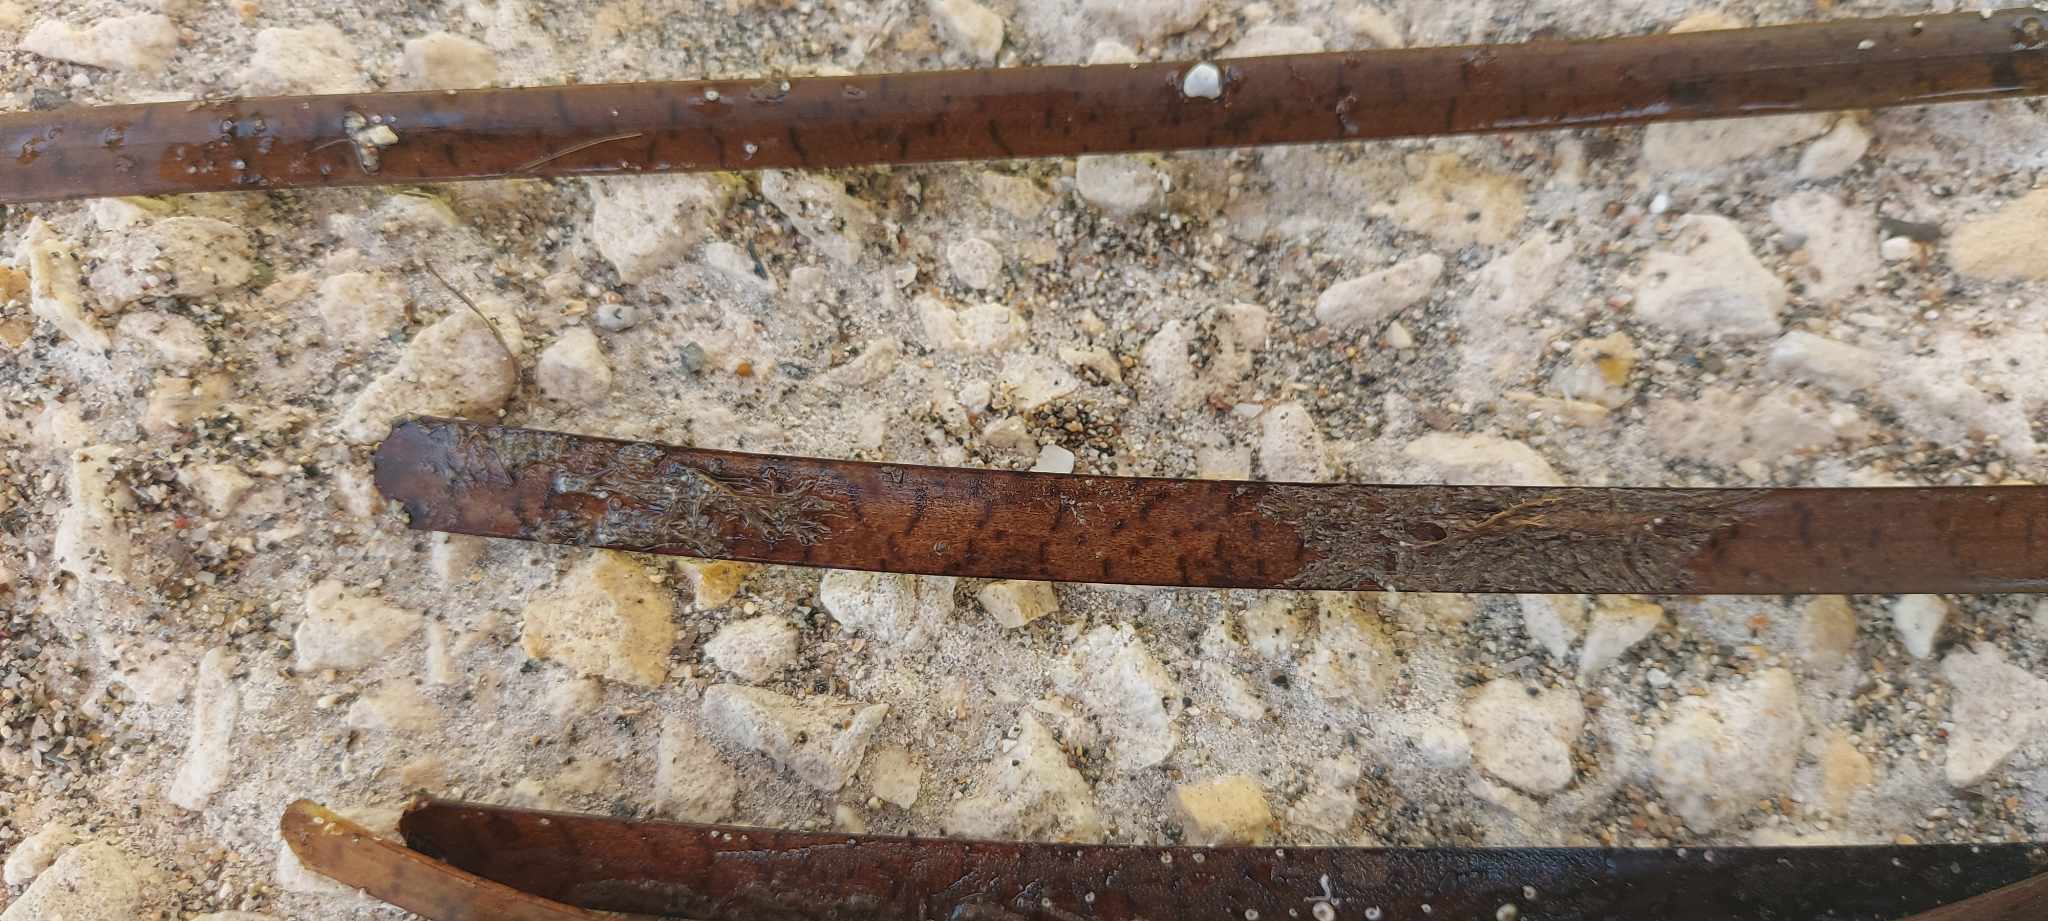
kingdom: Plantae
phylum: Tracheophyta
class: Liliopsida
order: Alismatales
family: Posidoniaceae
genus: Posidonia
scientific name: Posidonia oceanica
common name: Mediterranean tapeweed
